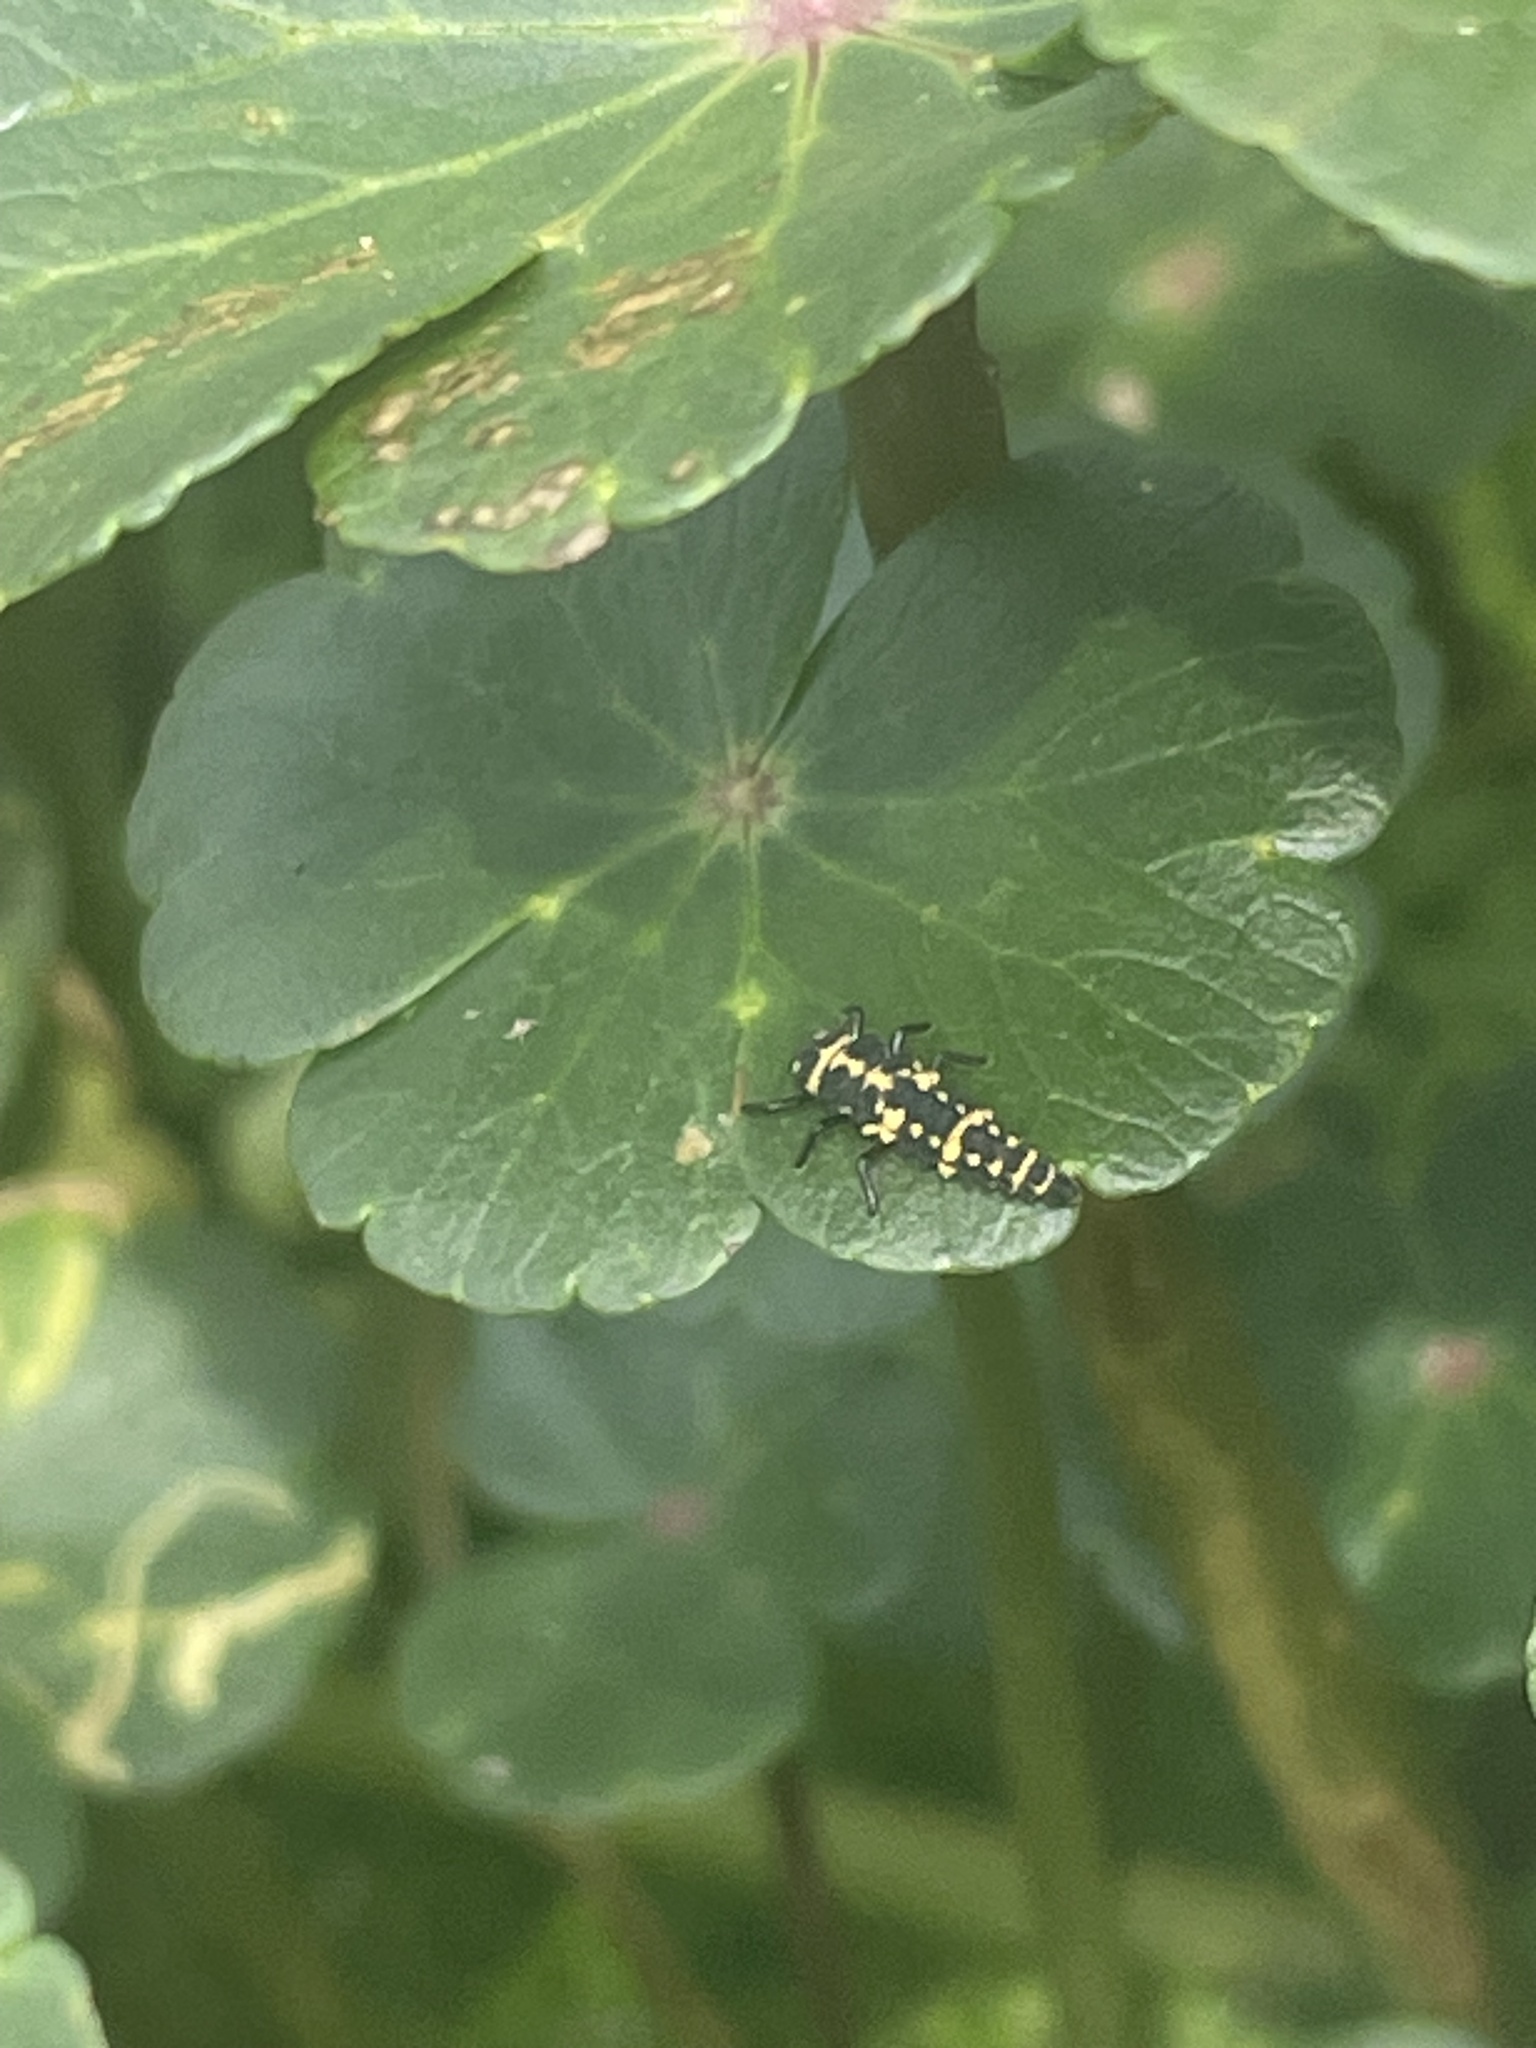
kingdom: Animalia
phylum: Arthropoda
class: Insecta
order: Coleoptera
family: Coccinellidae
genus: Coleomegilla
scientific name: Coleomegilla maculata
